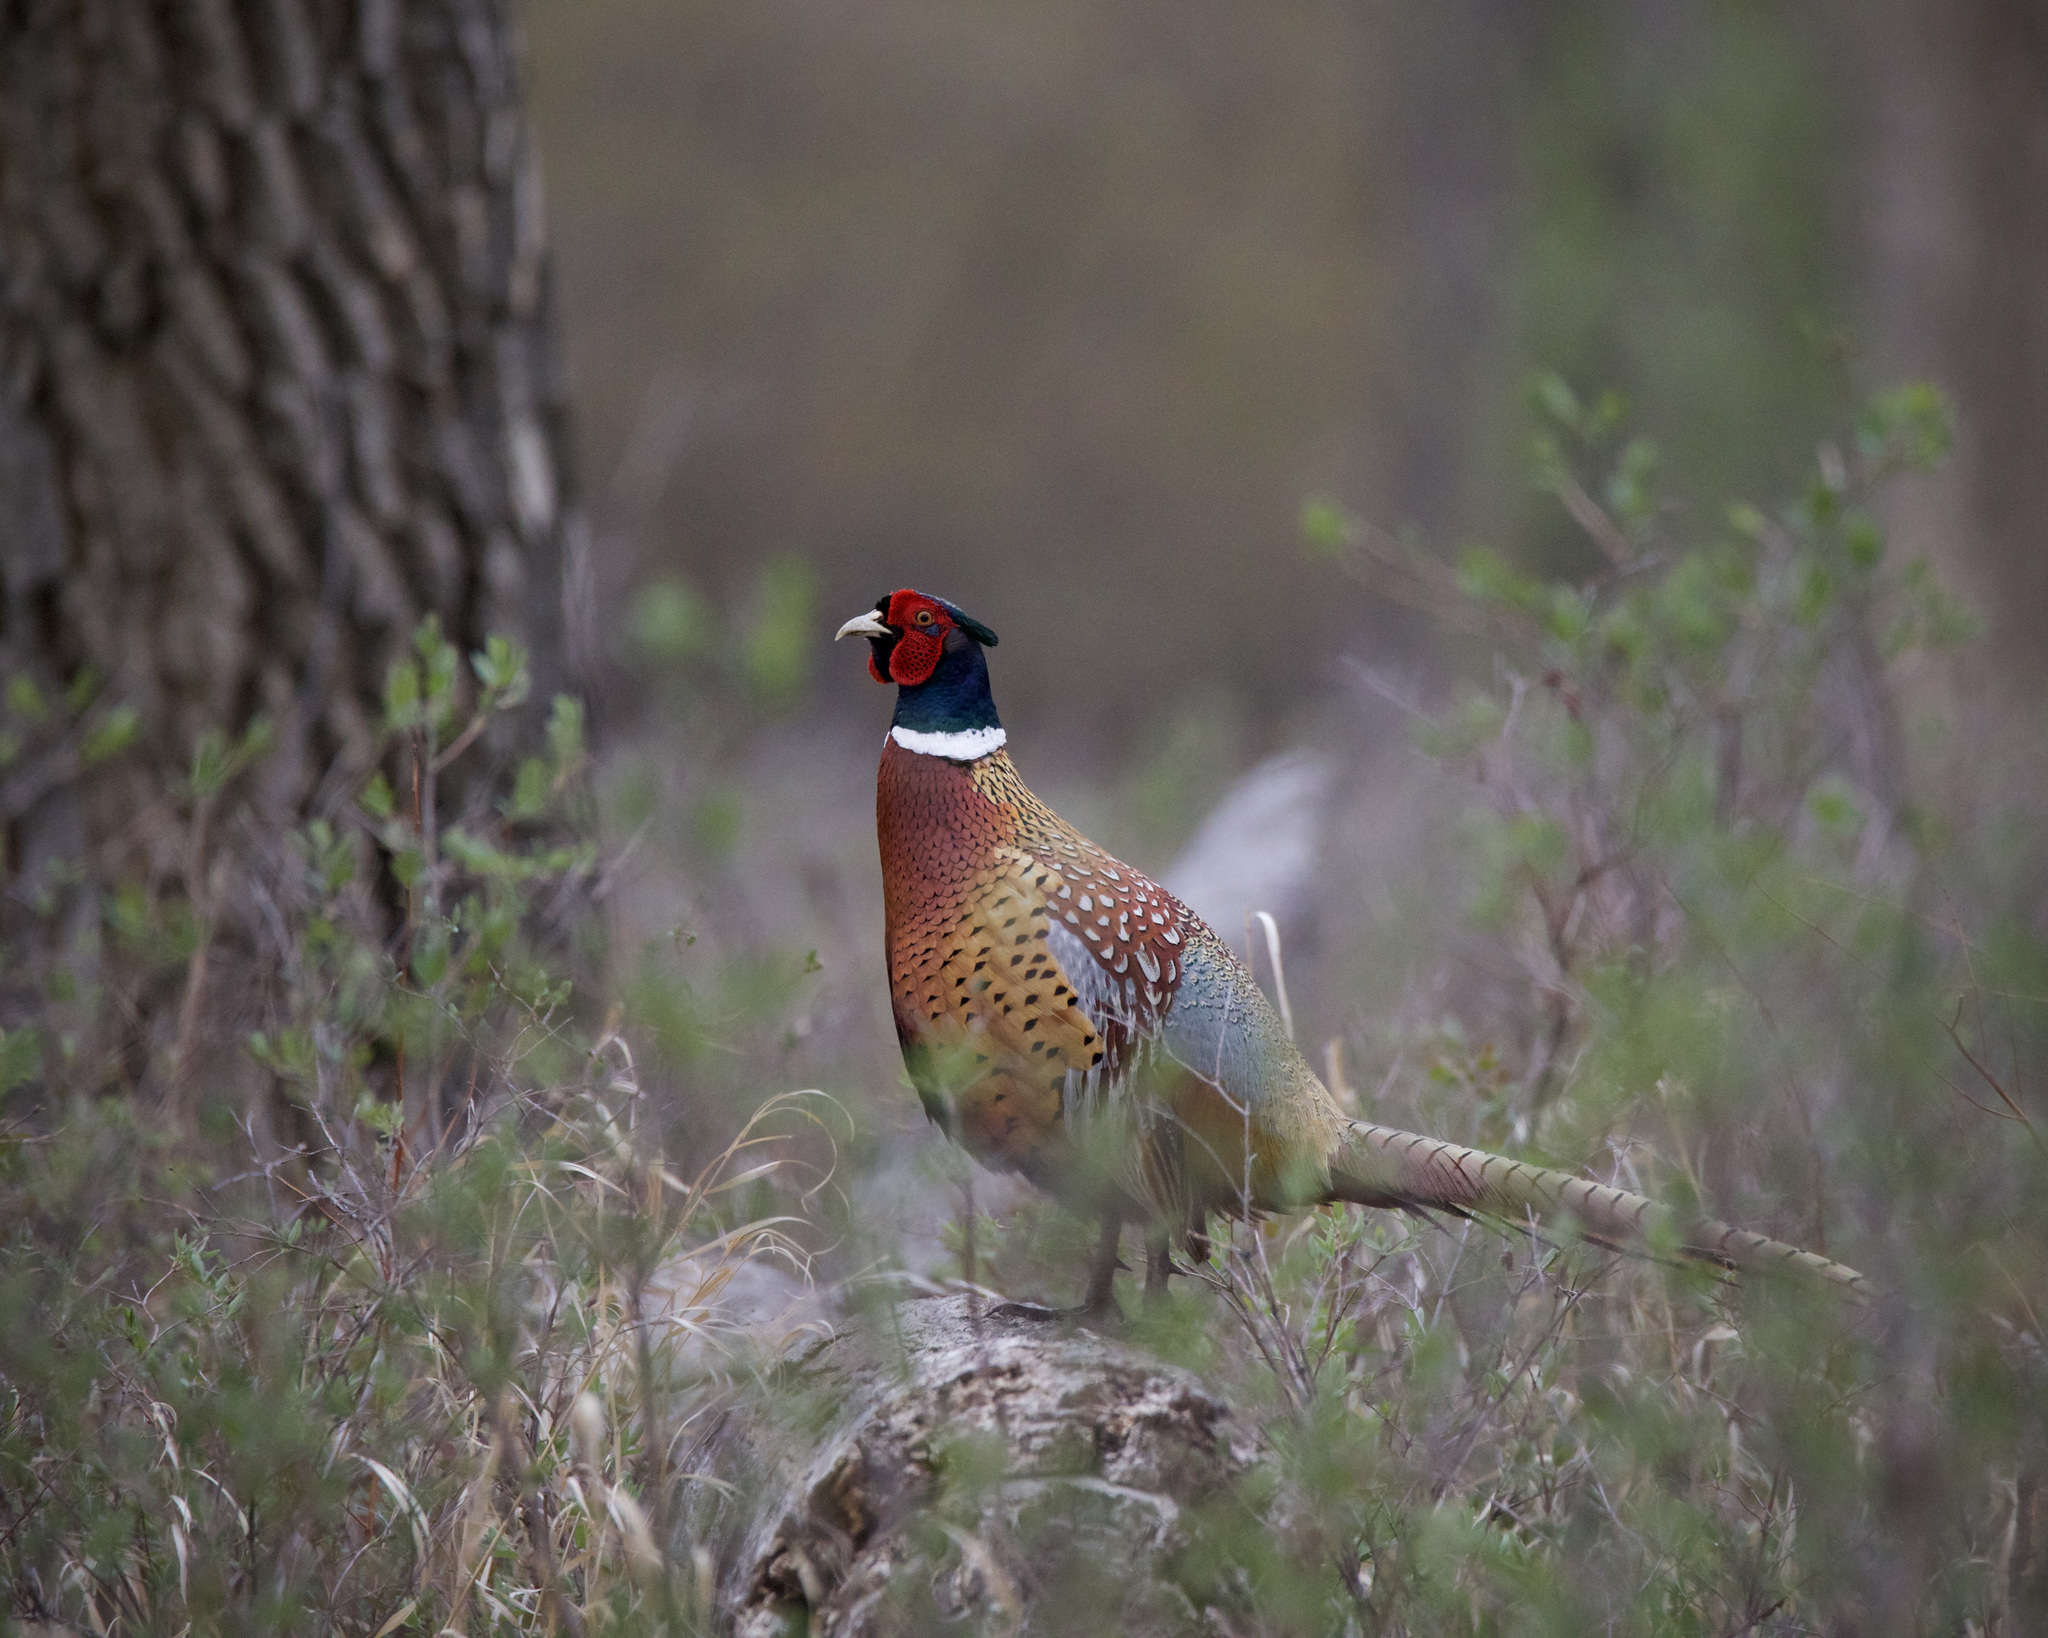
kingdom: Animalia
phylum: Chordata
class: Aves
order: Galliformes
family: Phasianidae
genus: Phasianus
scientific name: Phasianus colchicus
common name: Common pheasant
